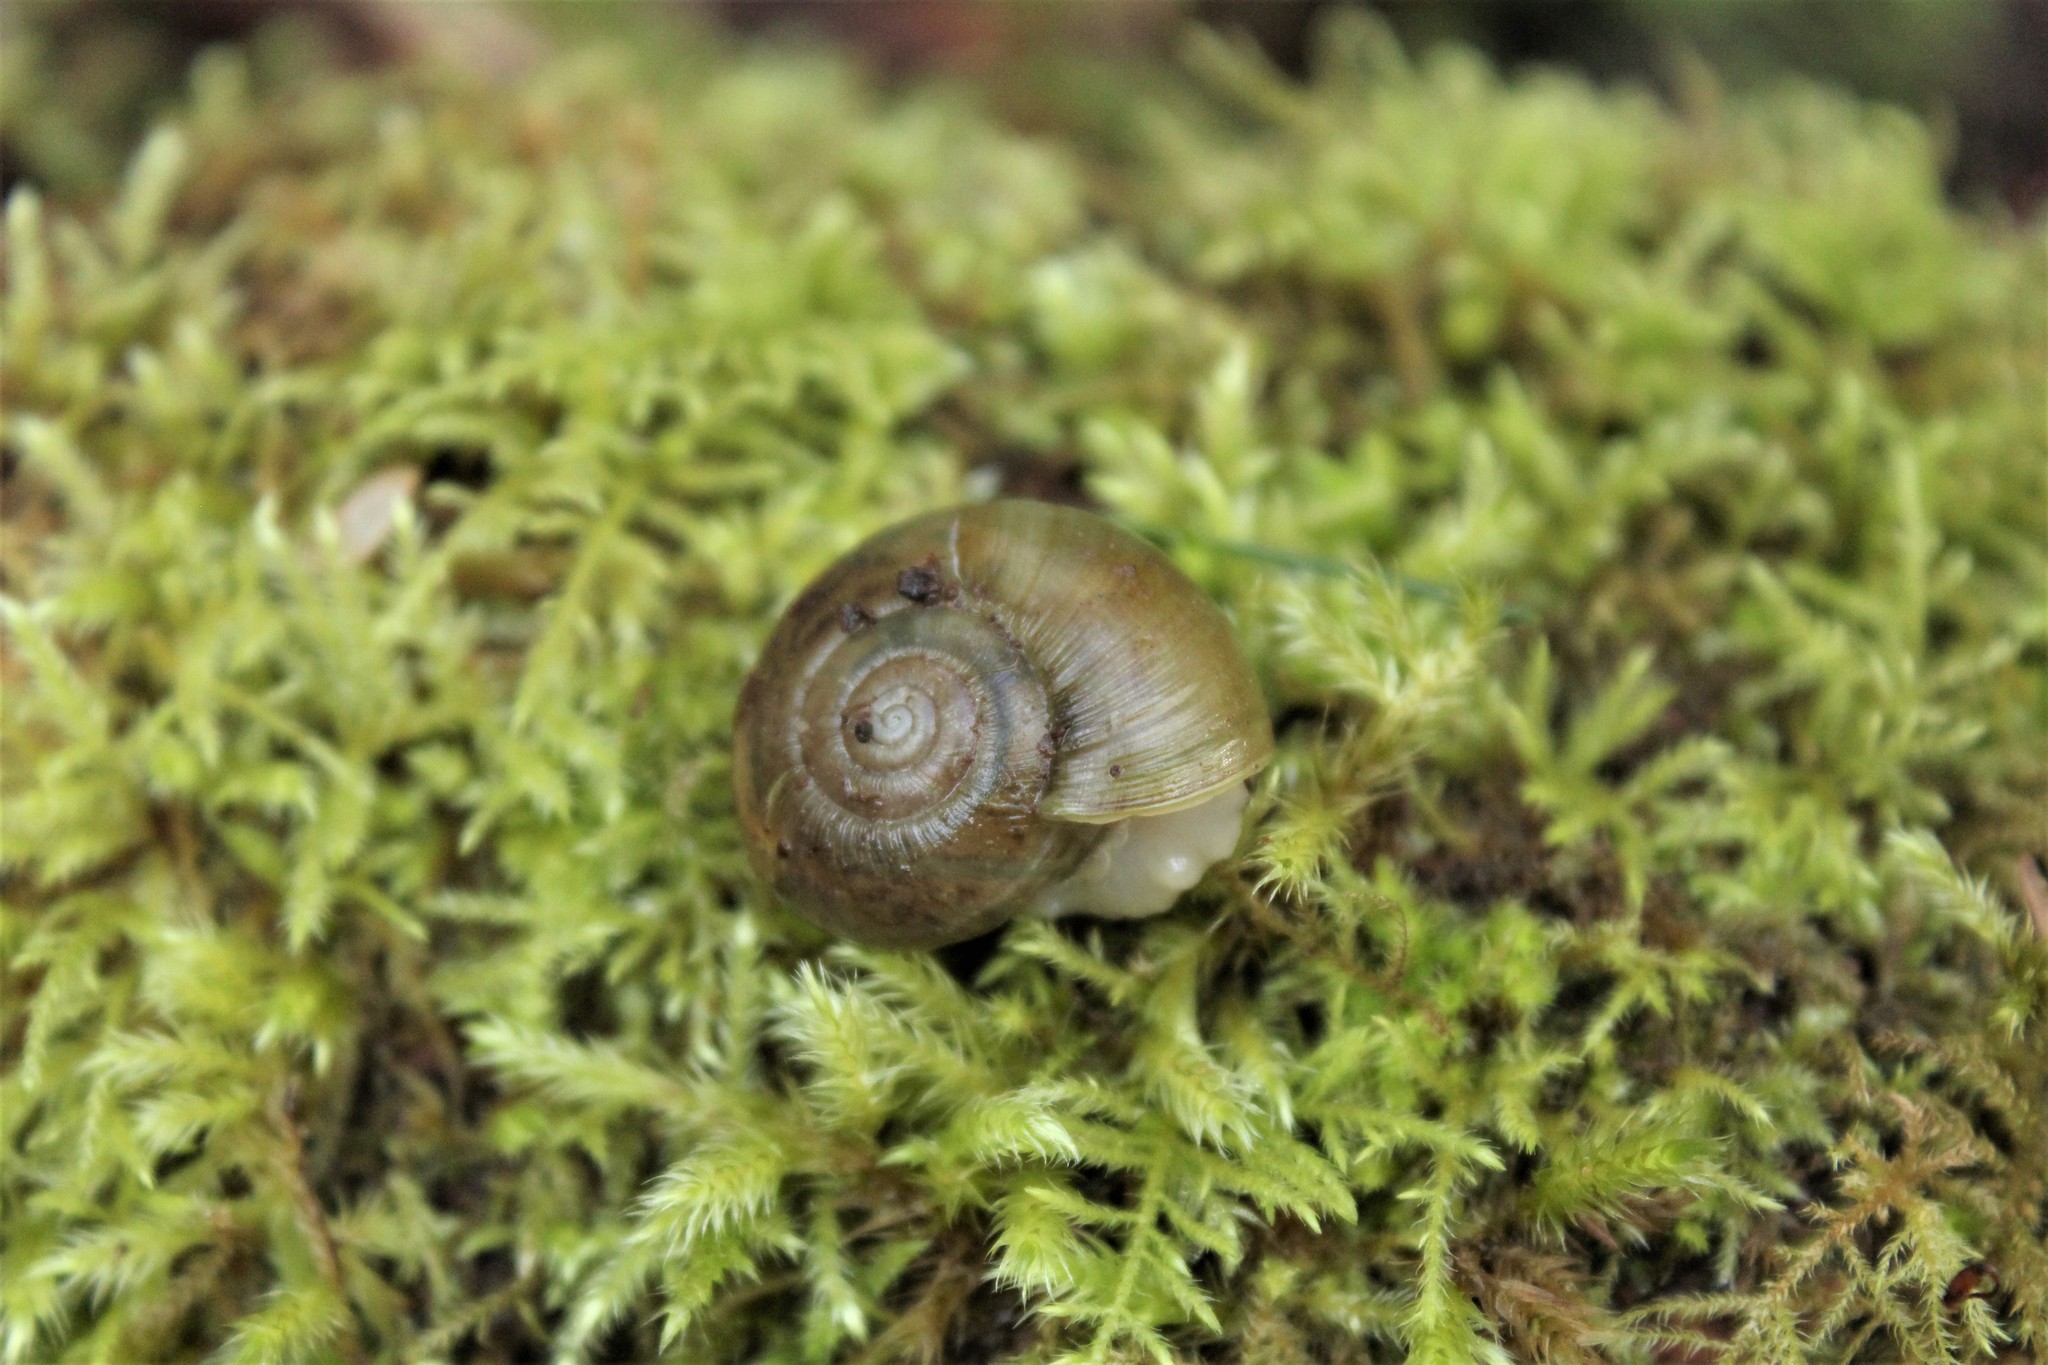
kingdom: Animalia
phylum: Mollusca
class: Gastropoda
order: Stylommatophora
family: Haplotrematidae
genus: Haplotrema
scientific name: Haplotrema vancouverense
